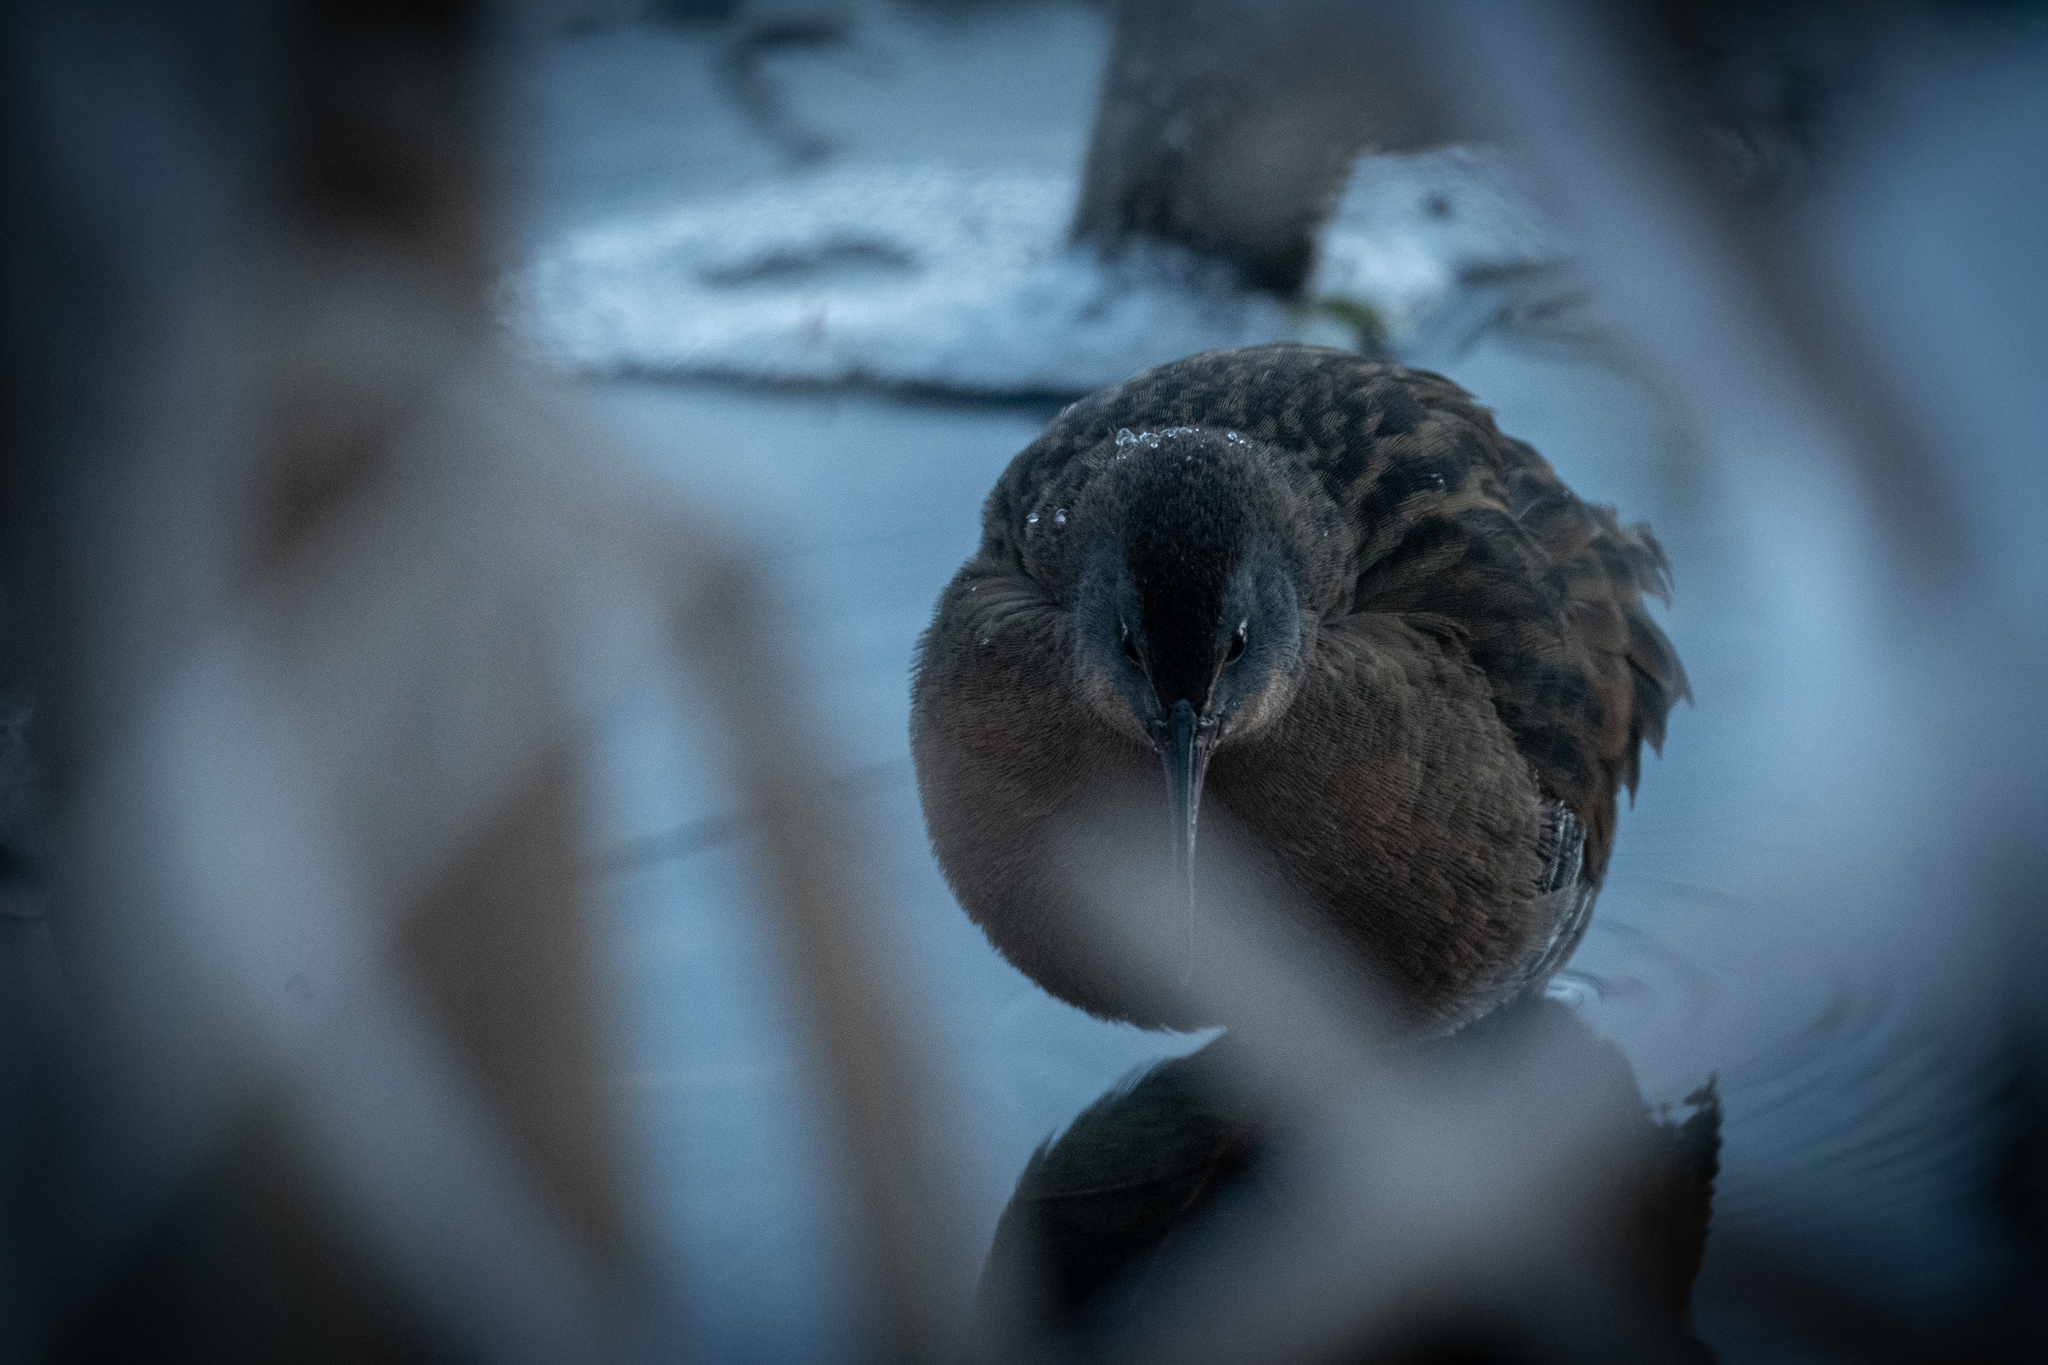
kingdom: Animalia
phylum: Chordata
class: Aves
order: Gruiformes
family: Rallidae
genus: Rallus
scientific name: Rallus limicola
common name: Virginia rail
